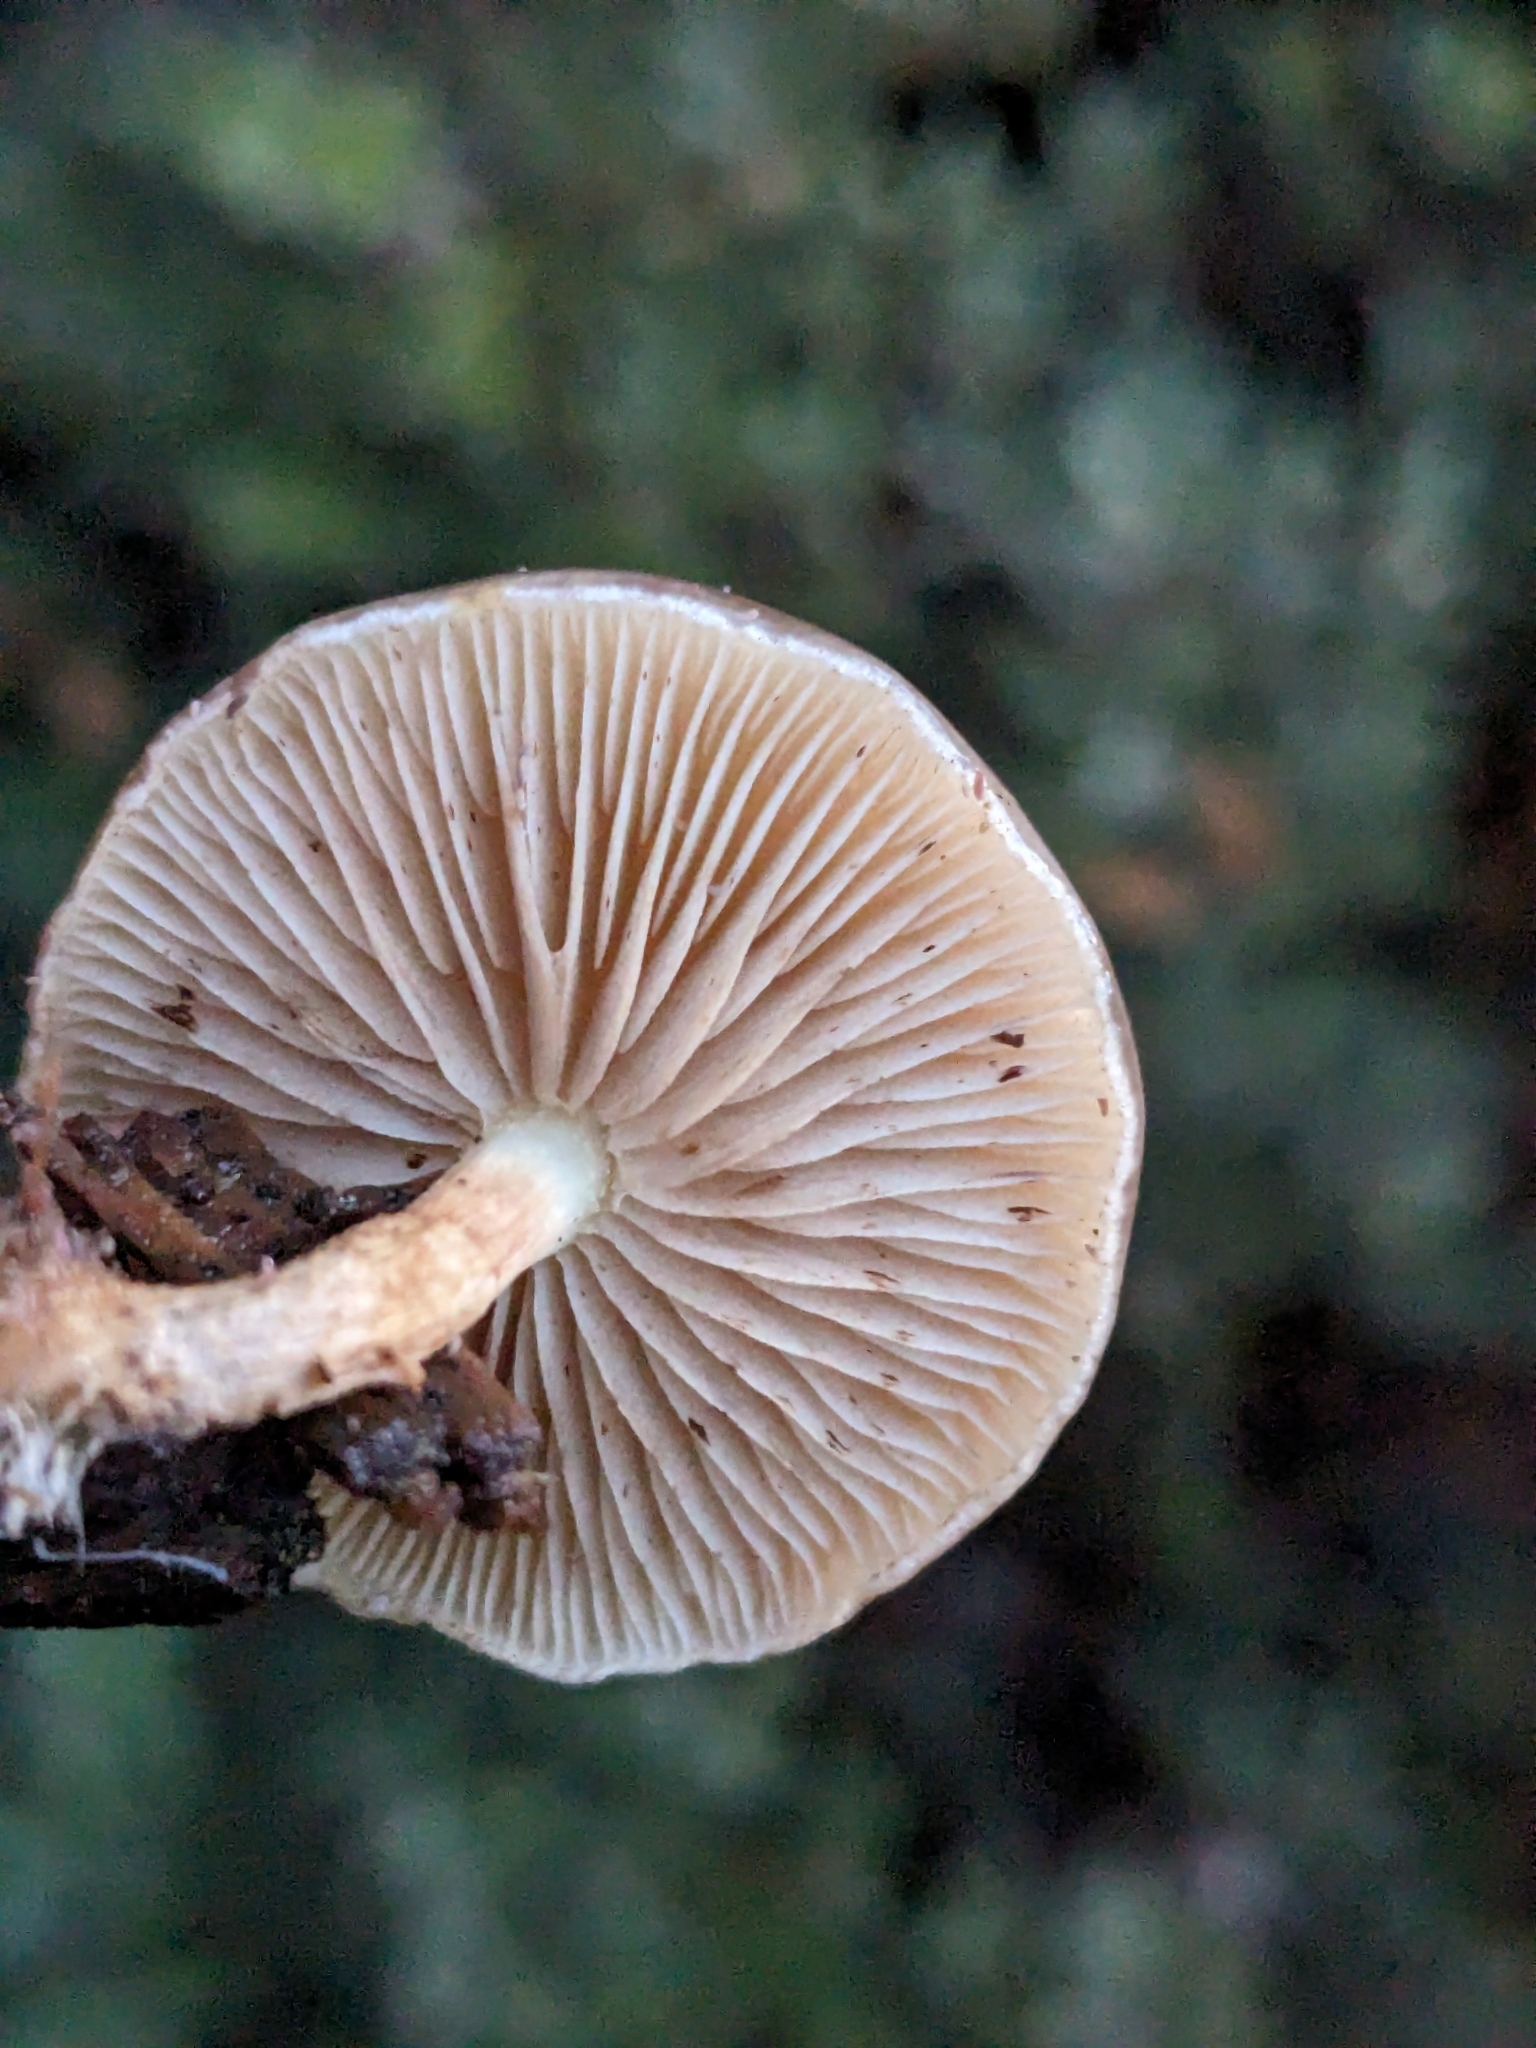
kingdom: Fungi
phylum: Basidiomycota
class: Agaricomycetes
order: Agaricales
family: Strophariaceae
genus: Pholiota
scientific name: Pholiota velaglutinosa
